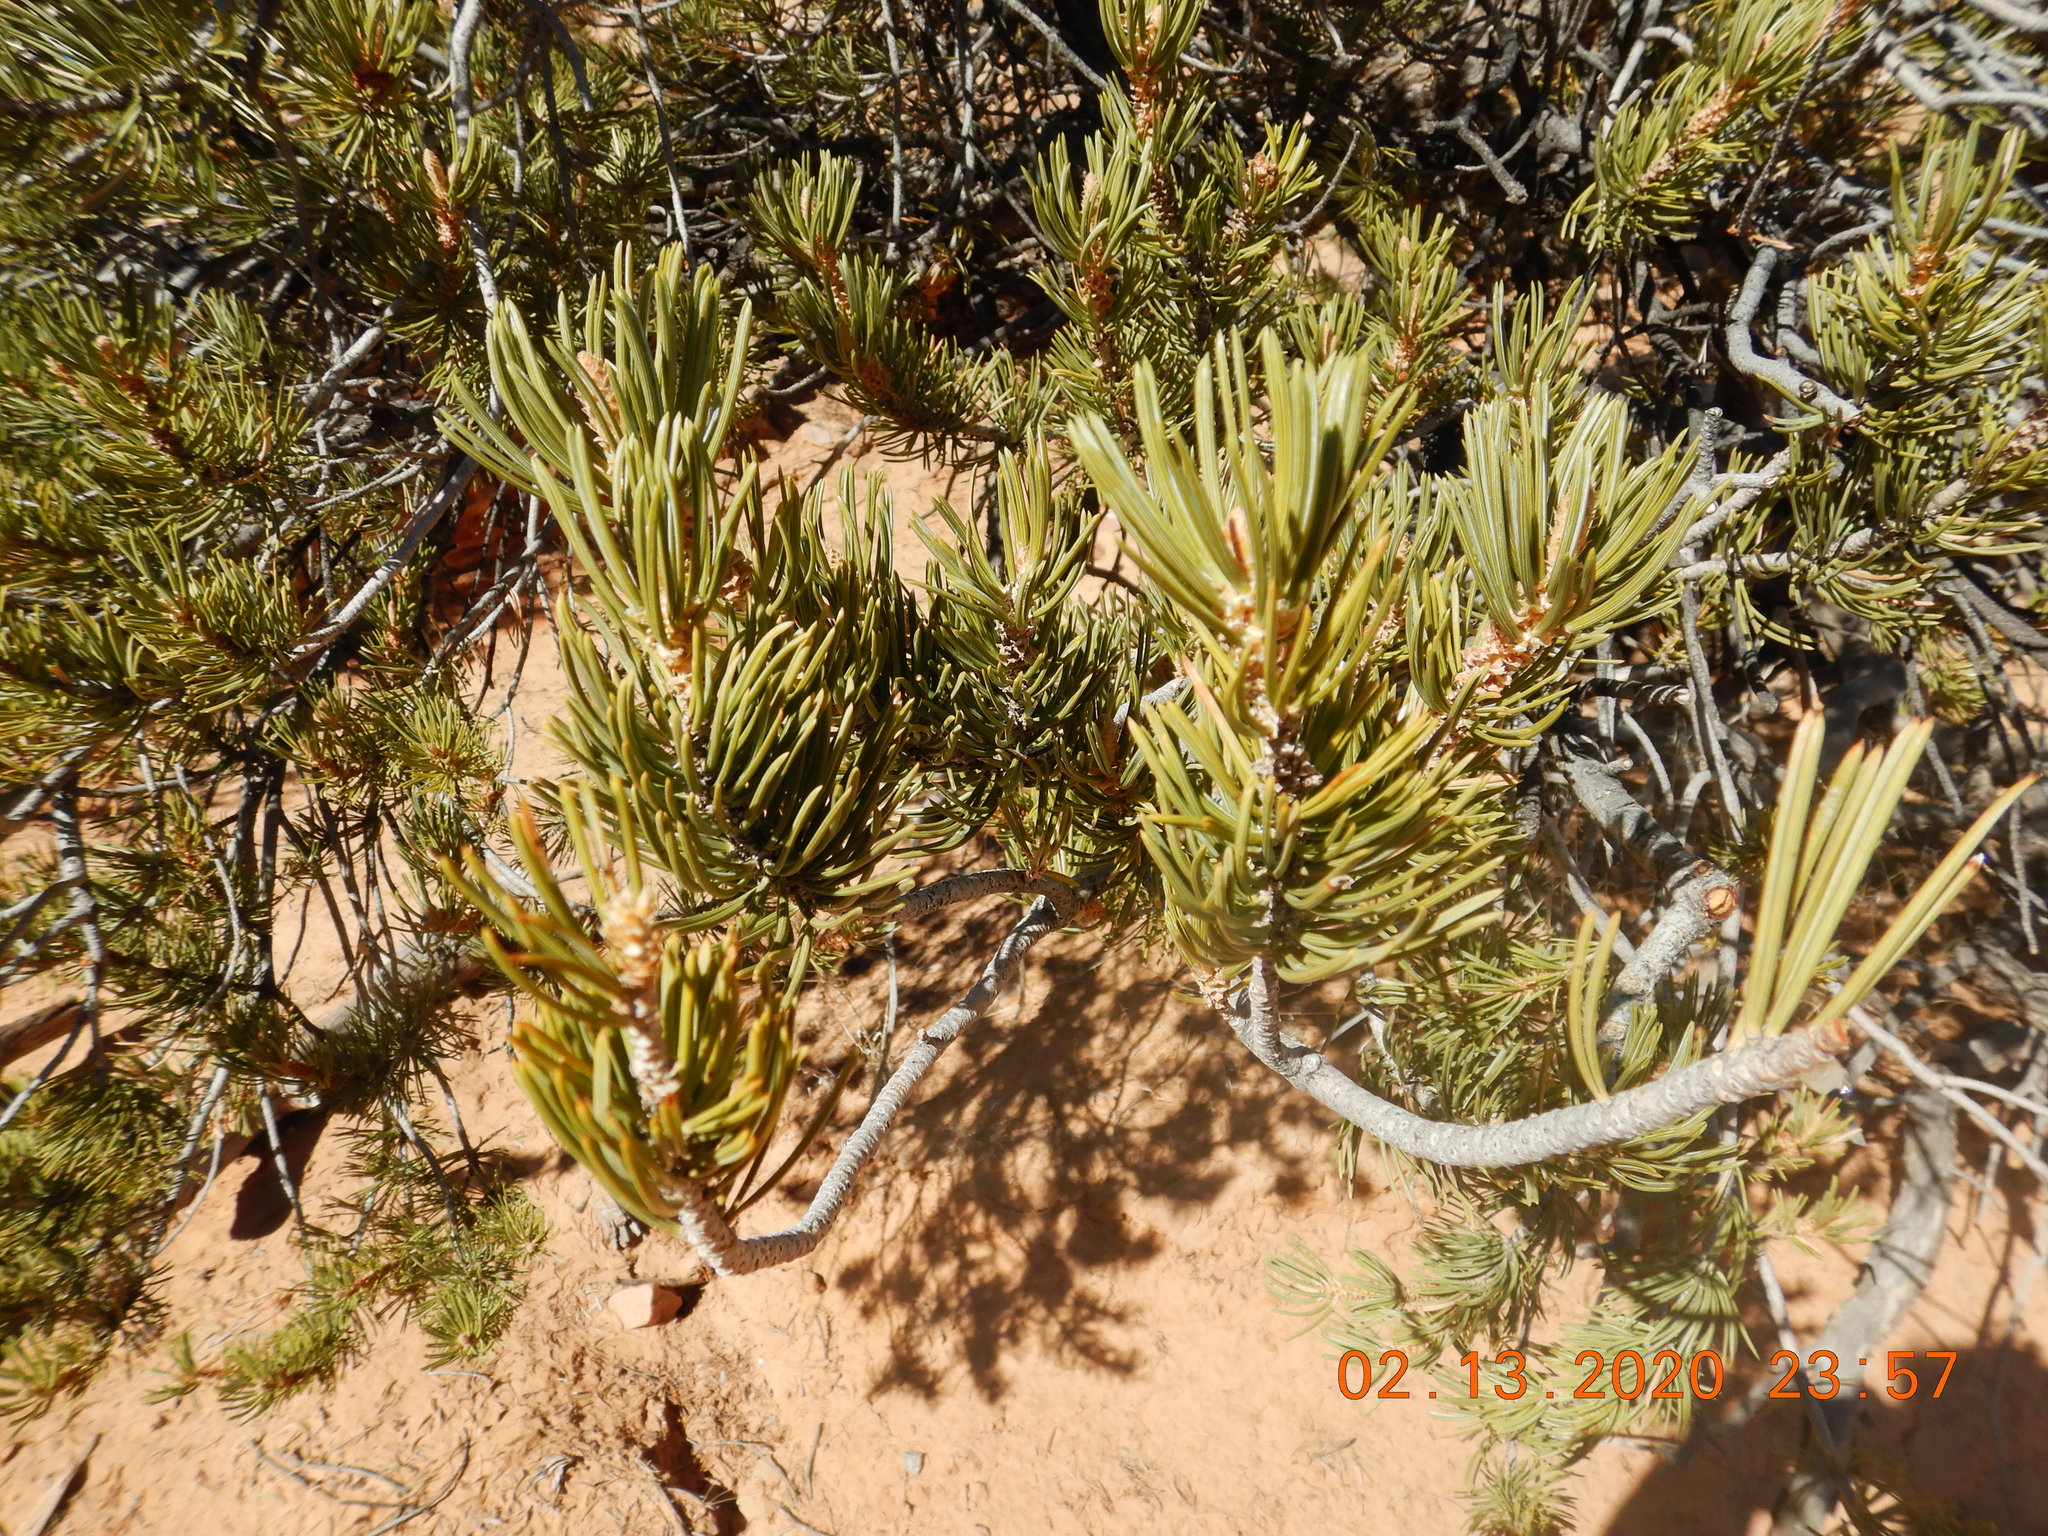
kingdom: Plantae
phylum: Tracheophyta
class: Pinopsida
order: Pinales
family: Pinaceae
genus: Pinus
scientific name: Pinus edulis
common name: Colorado pinyon
